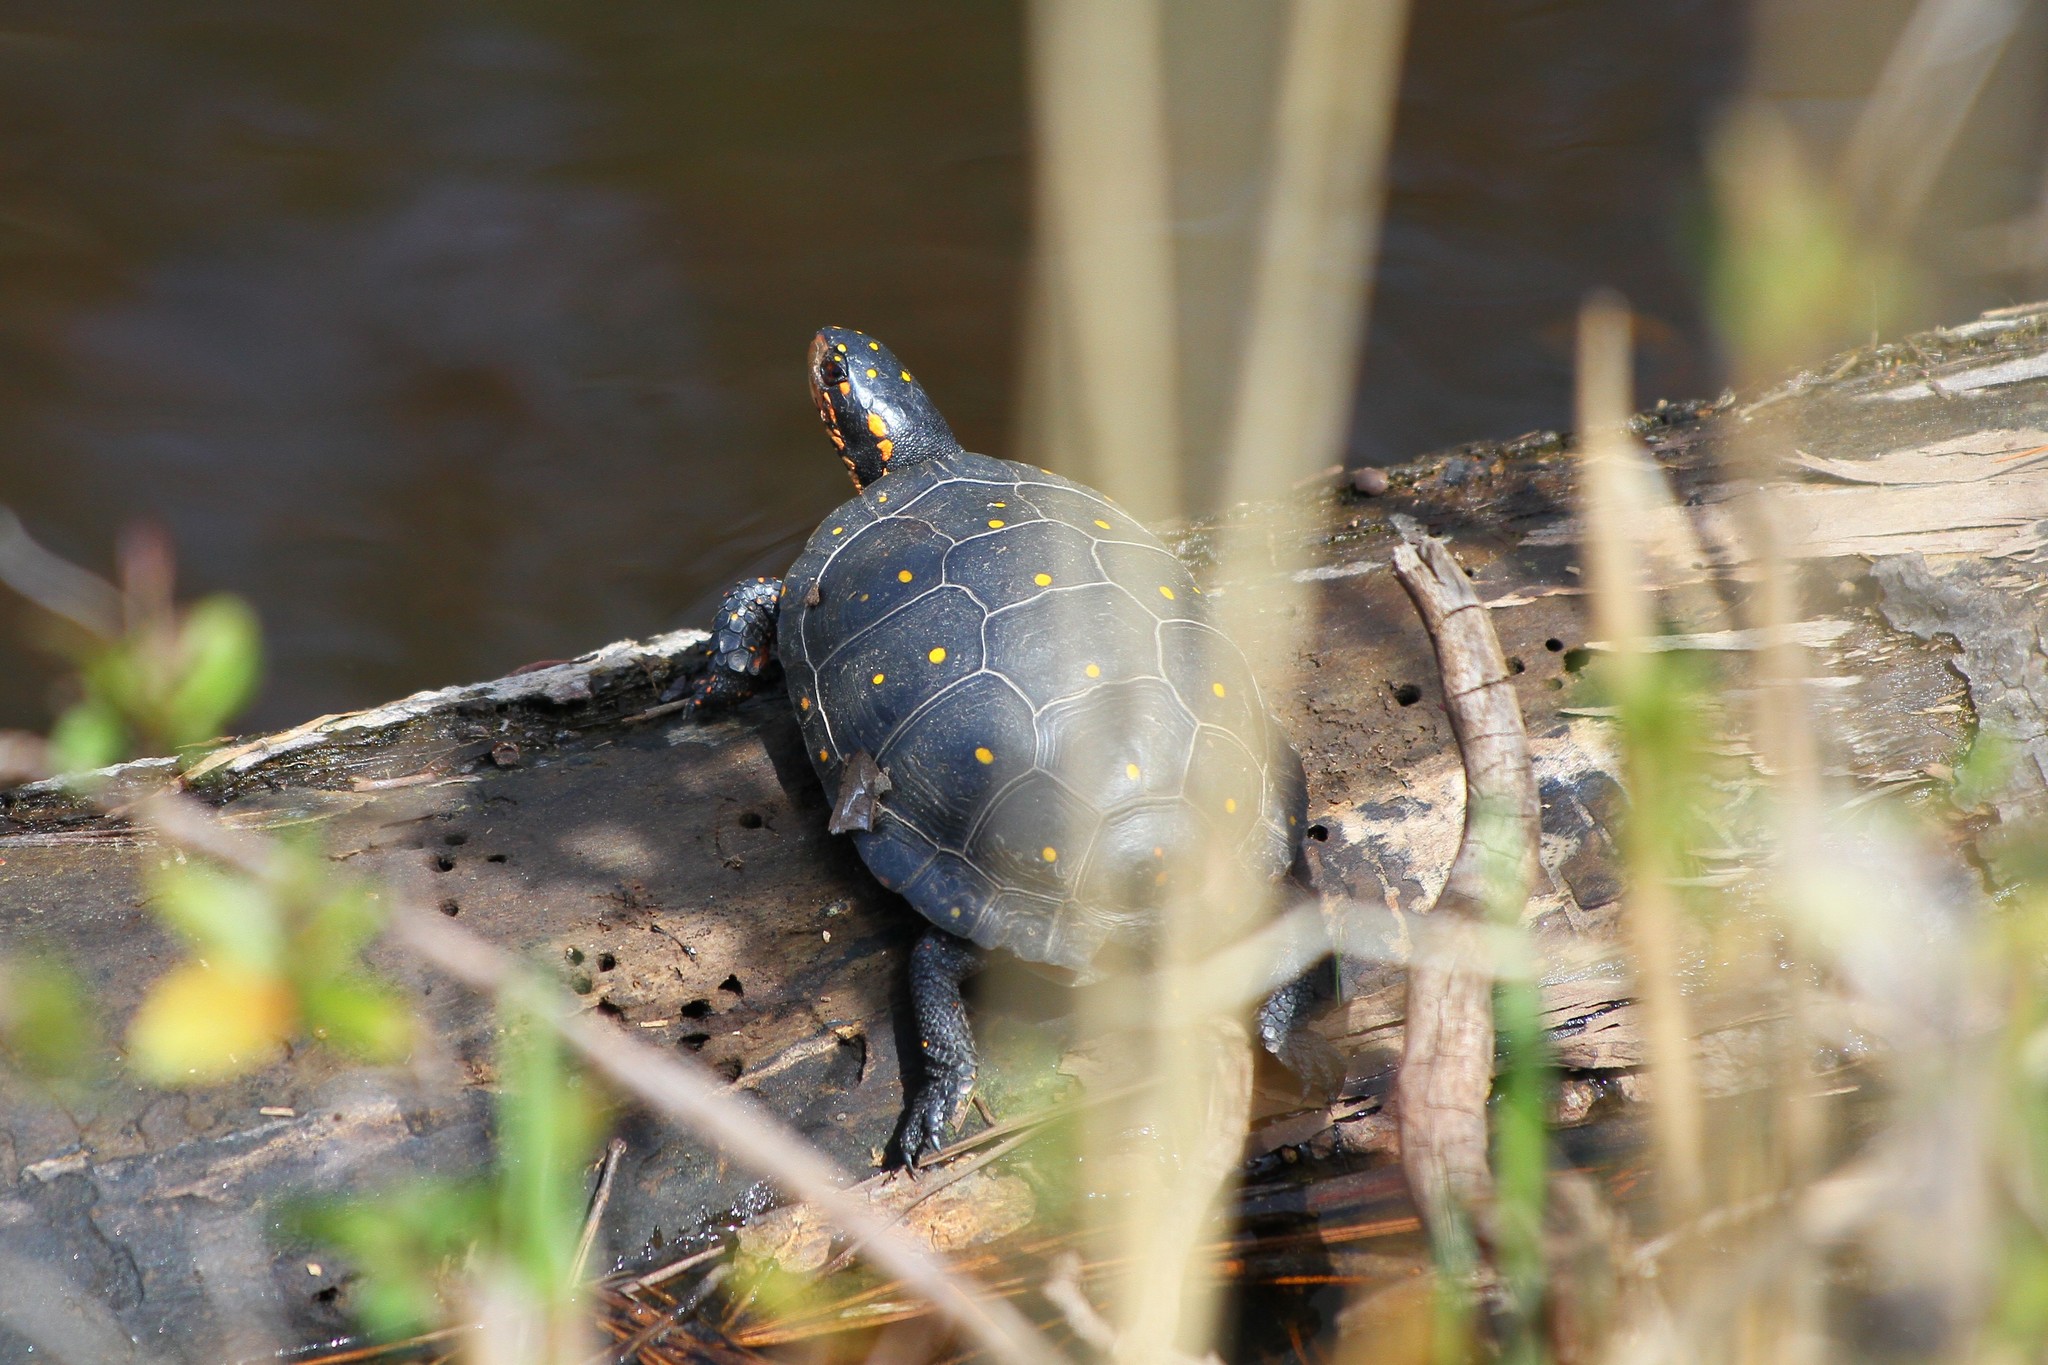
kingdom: Animalia
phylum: Chordata
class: Testudines
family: Emydidae
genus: Clemmys
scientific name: Clemmys guttata
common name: Spotted turtle
